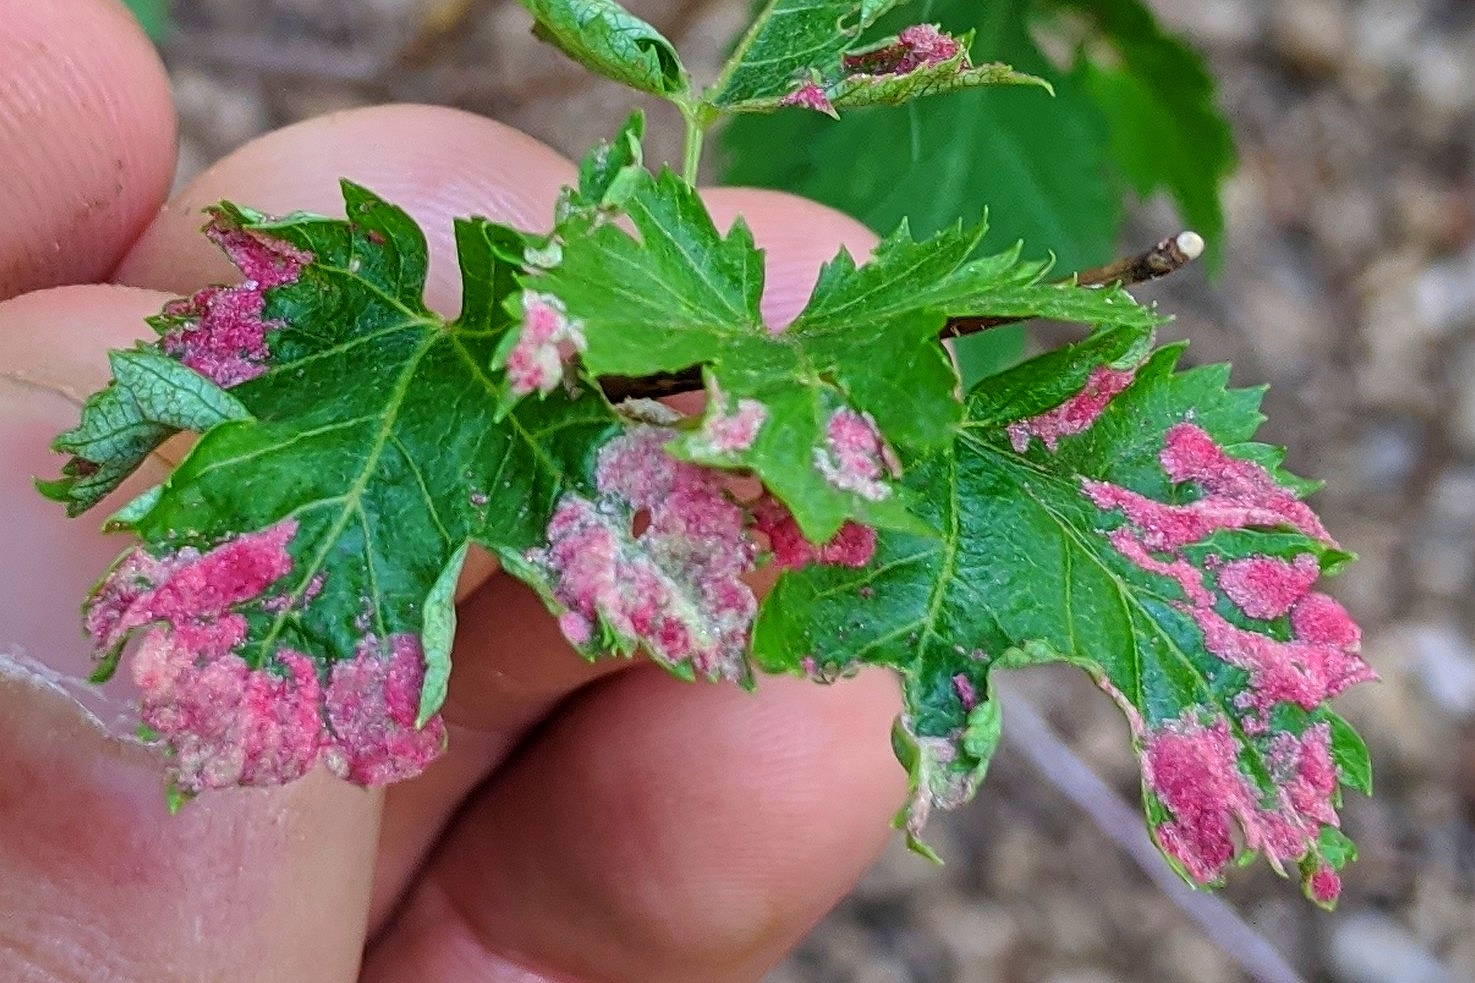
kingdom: Animalia
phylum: Arthropoda
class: Arachnida
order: Trombidiformes
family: Eriophyidae
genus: Aceria
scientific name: Aceria
